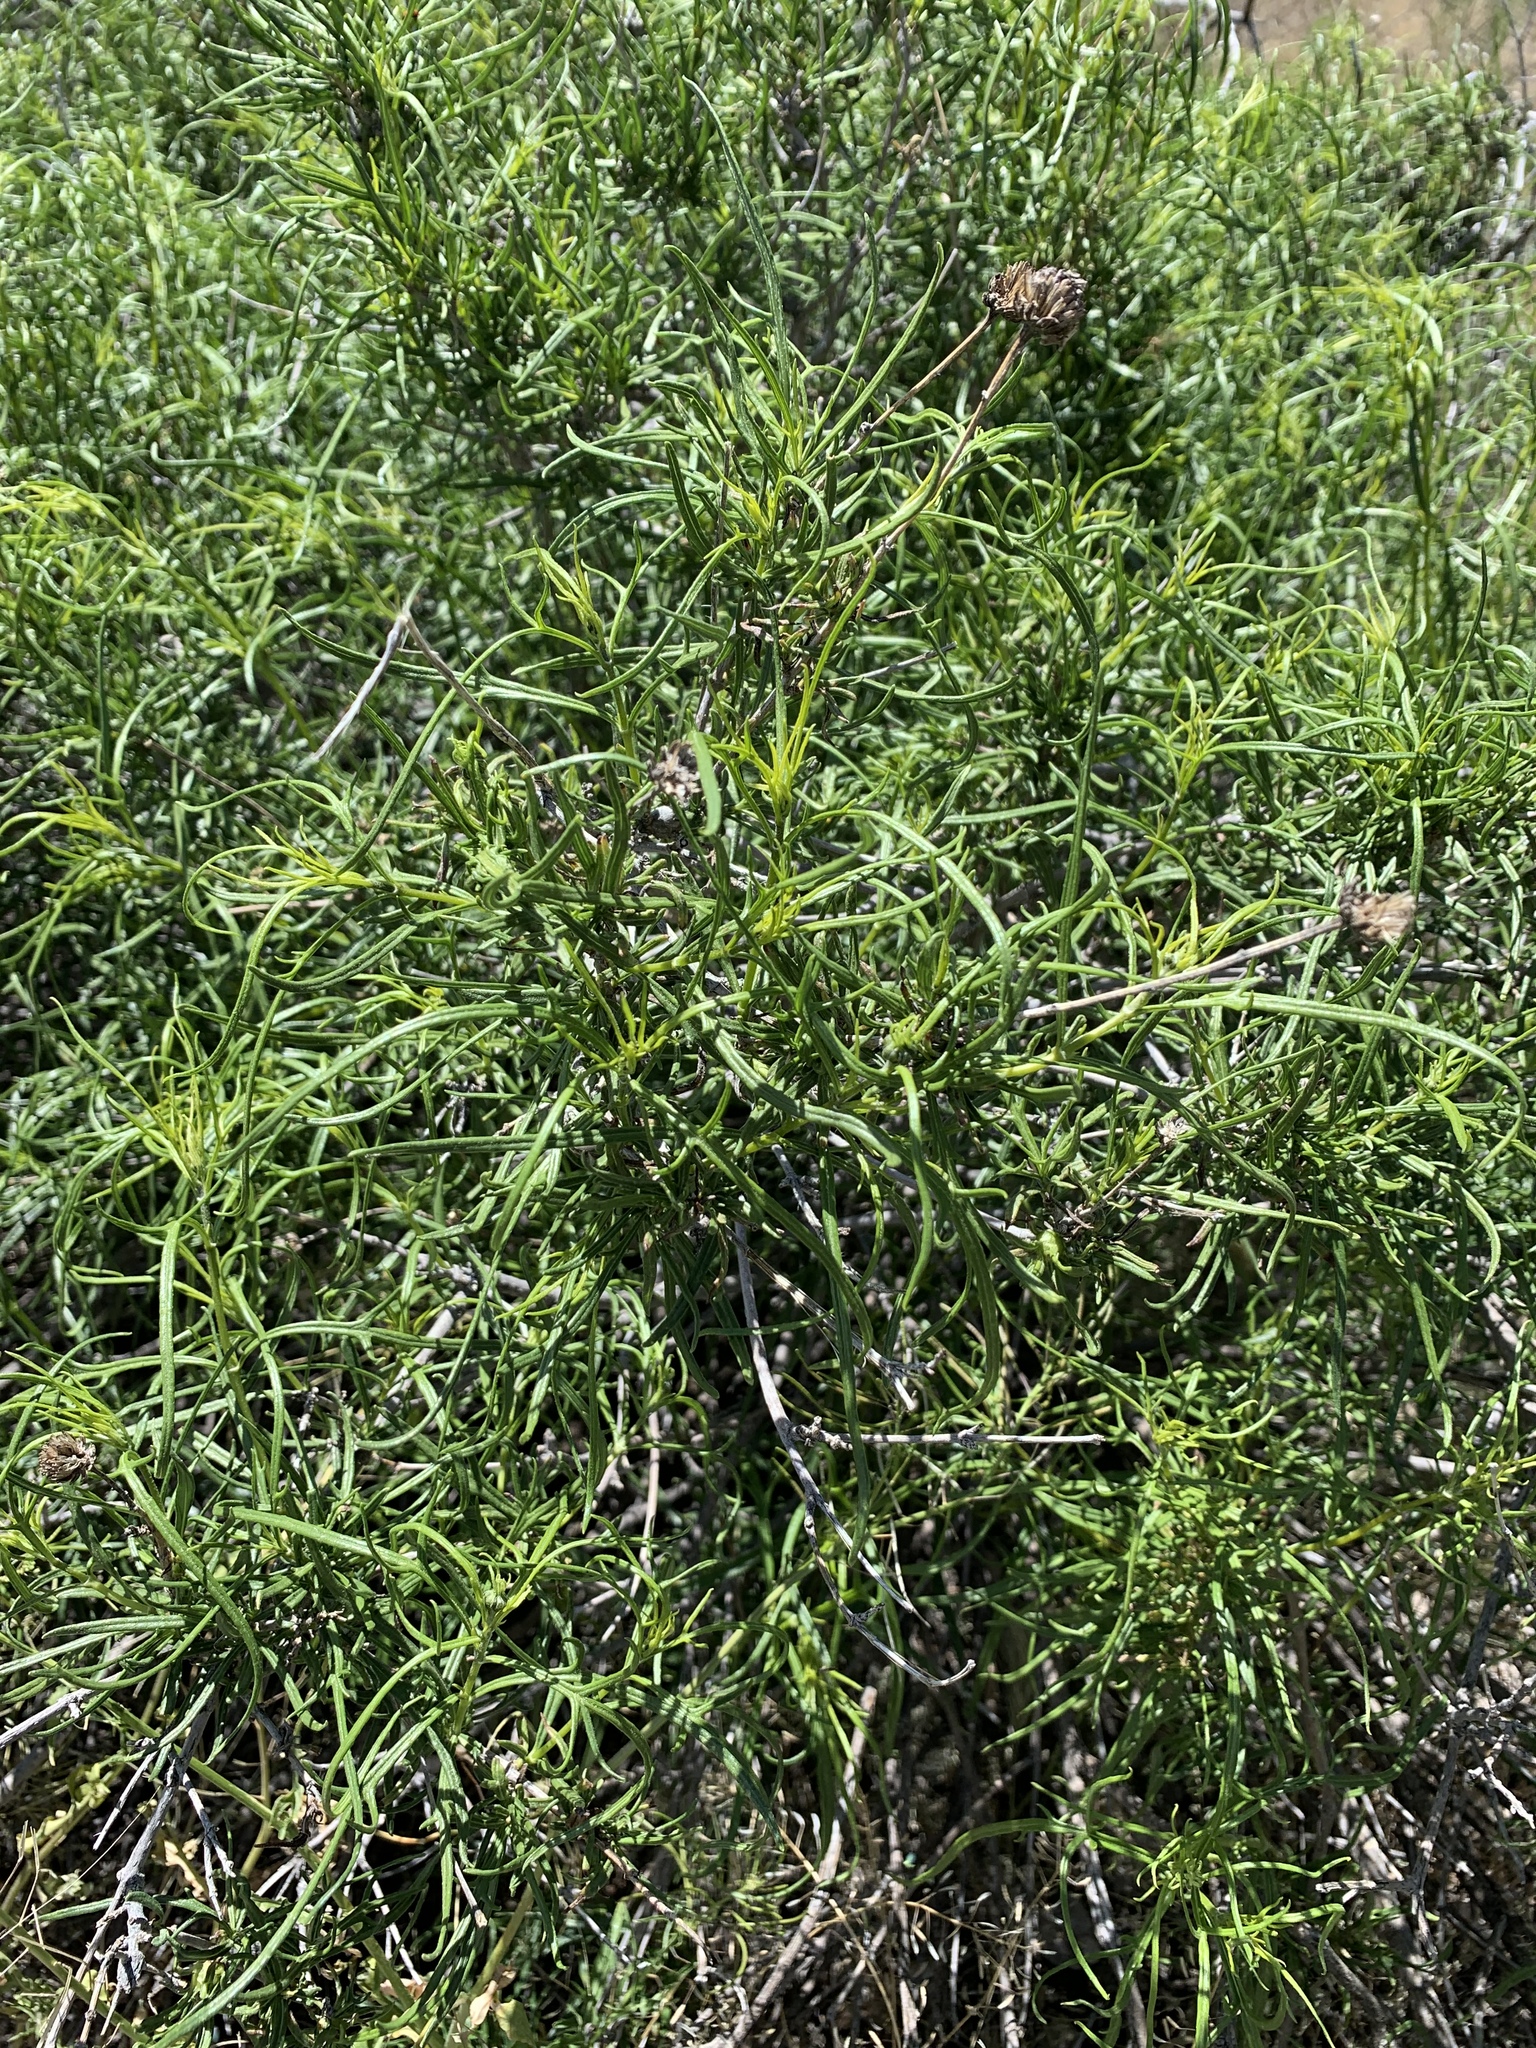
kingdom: Plantae
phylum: Tracheophyta
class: Magnoliopsida
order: Asterales
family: Asteraceae
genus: Sidneya
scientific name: Sidneya tenuifolia
